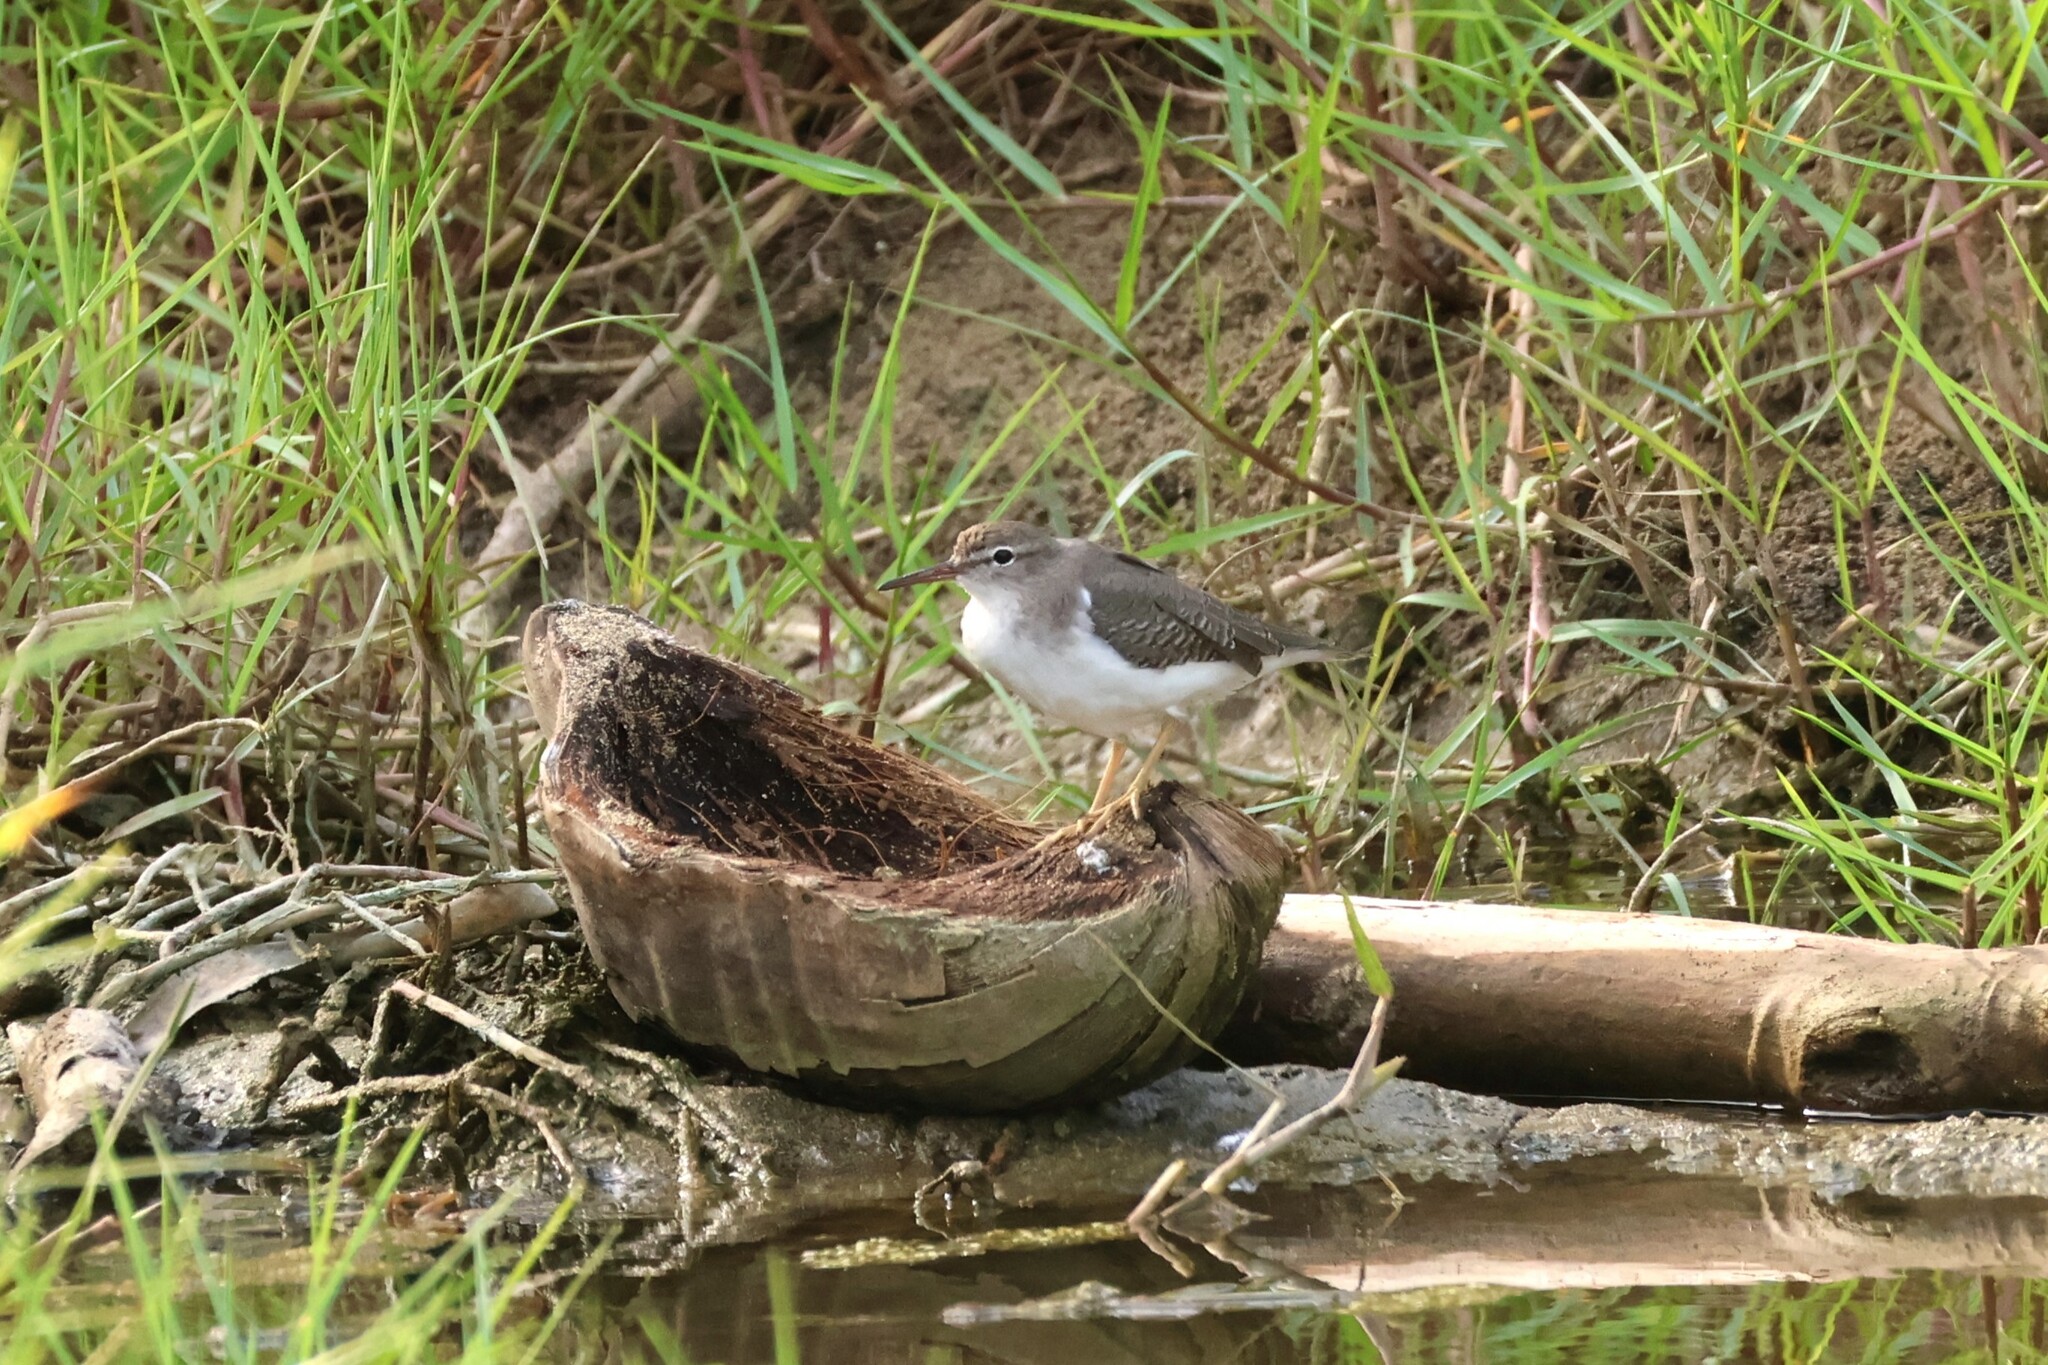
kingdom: Animalia
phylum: Chordata
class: Aves
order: Charadriiformes
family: Scolopacidae
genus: Actitis
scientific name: Actitis macularius
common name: Spotted sandpiper
